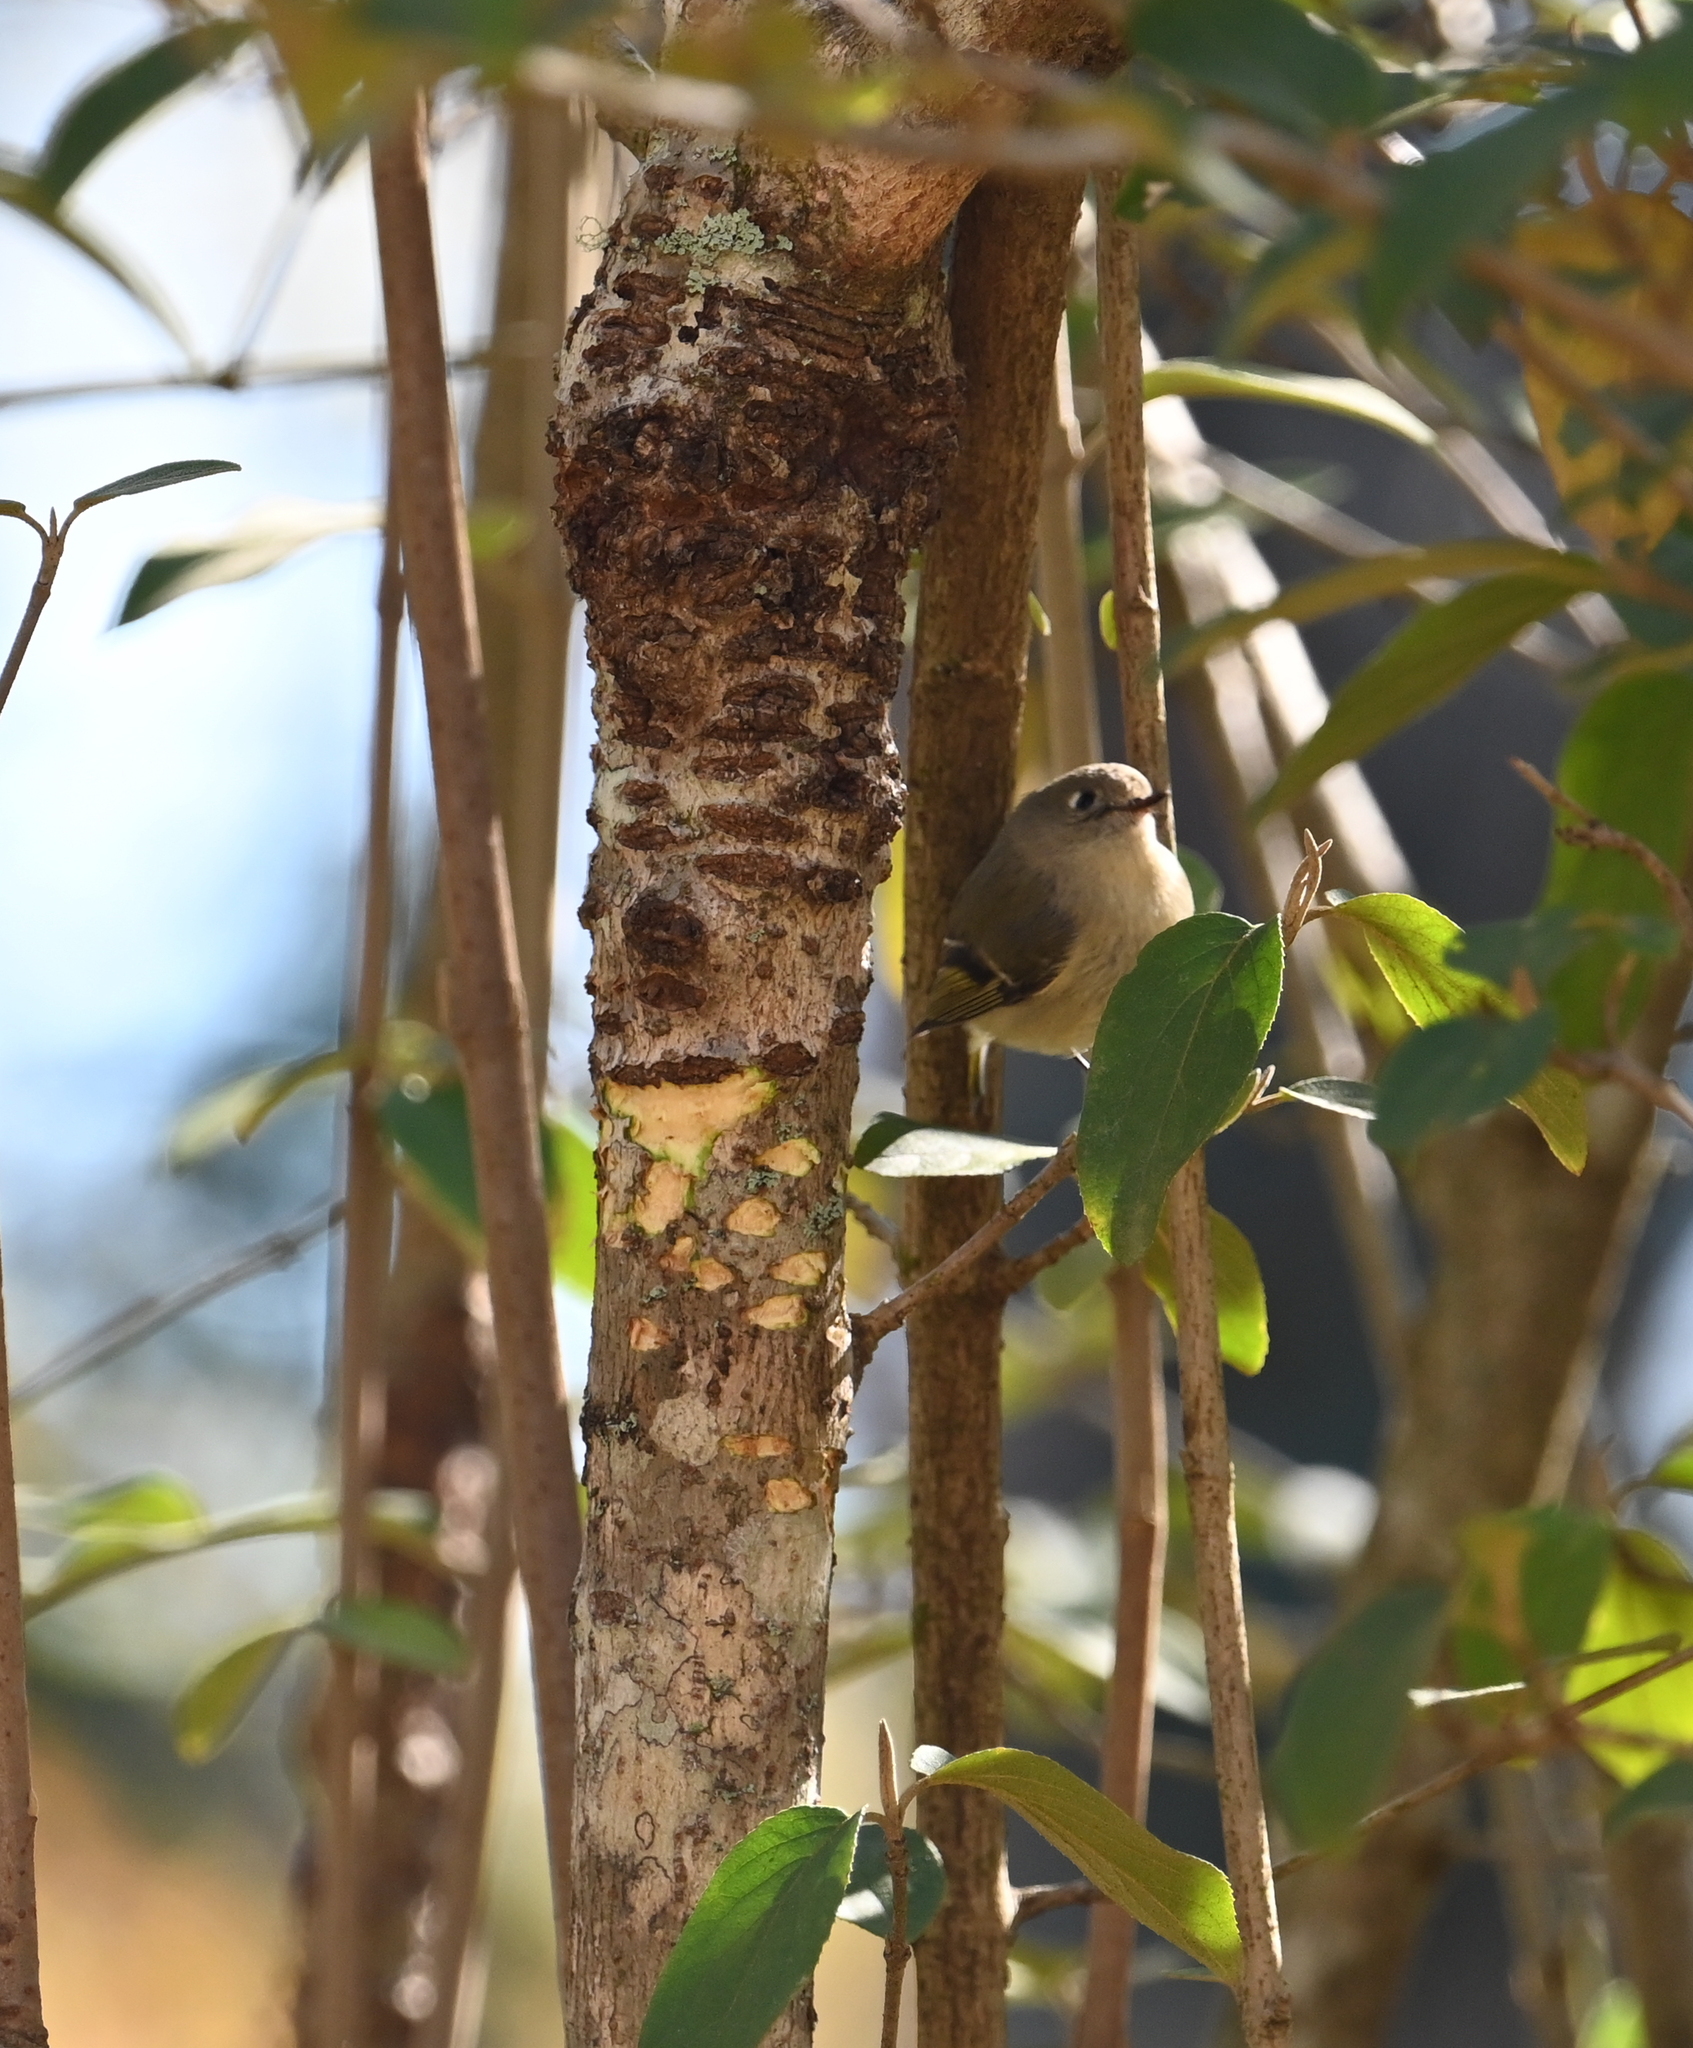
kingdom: Animalia
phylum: Chordata
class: Aves
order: Passeriformes
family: Regulidae
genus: Regulus
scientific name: Regulus calendula
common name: Ruby-crowned kinglet
